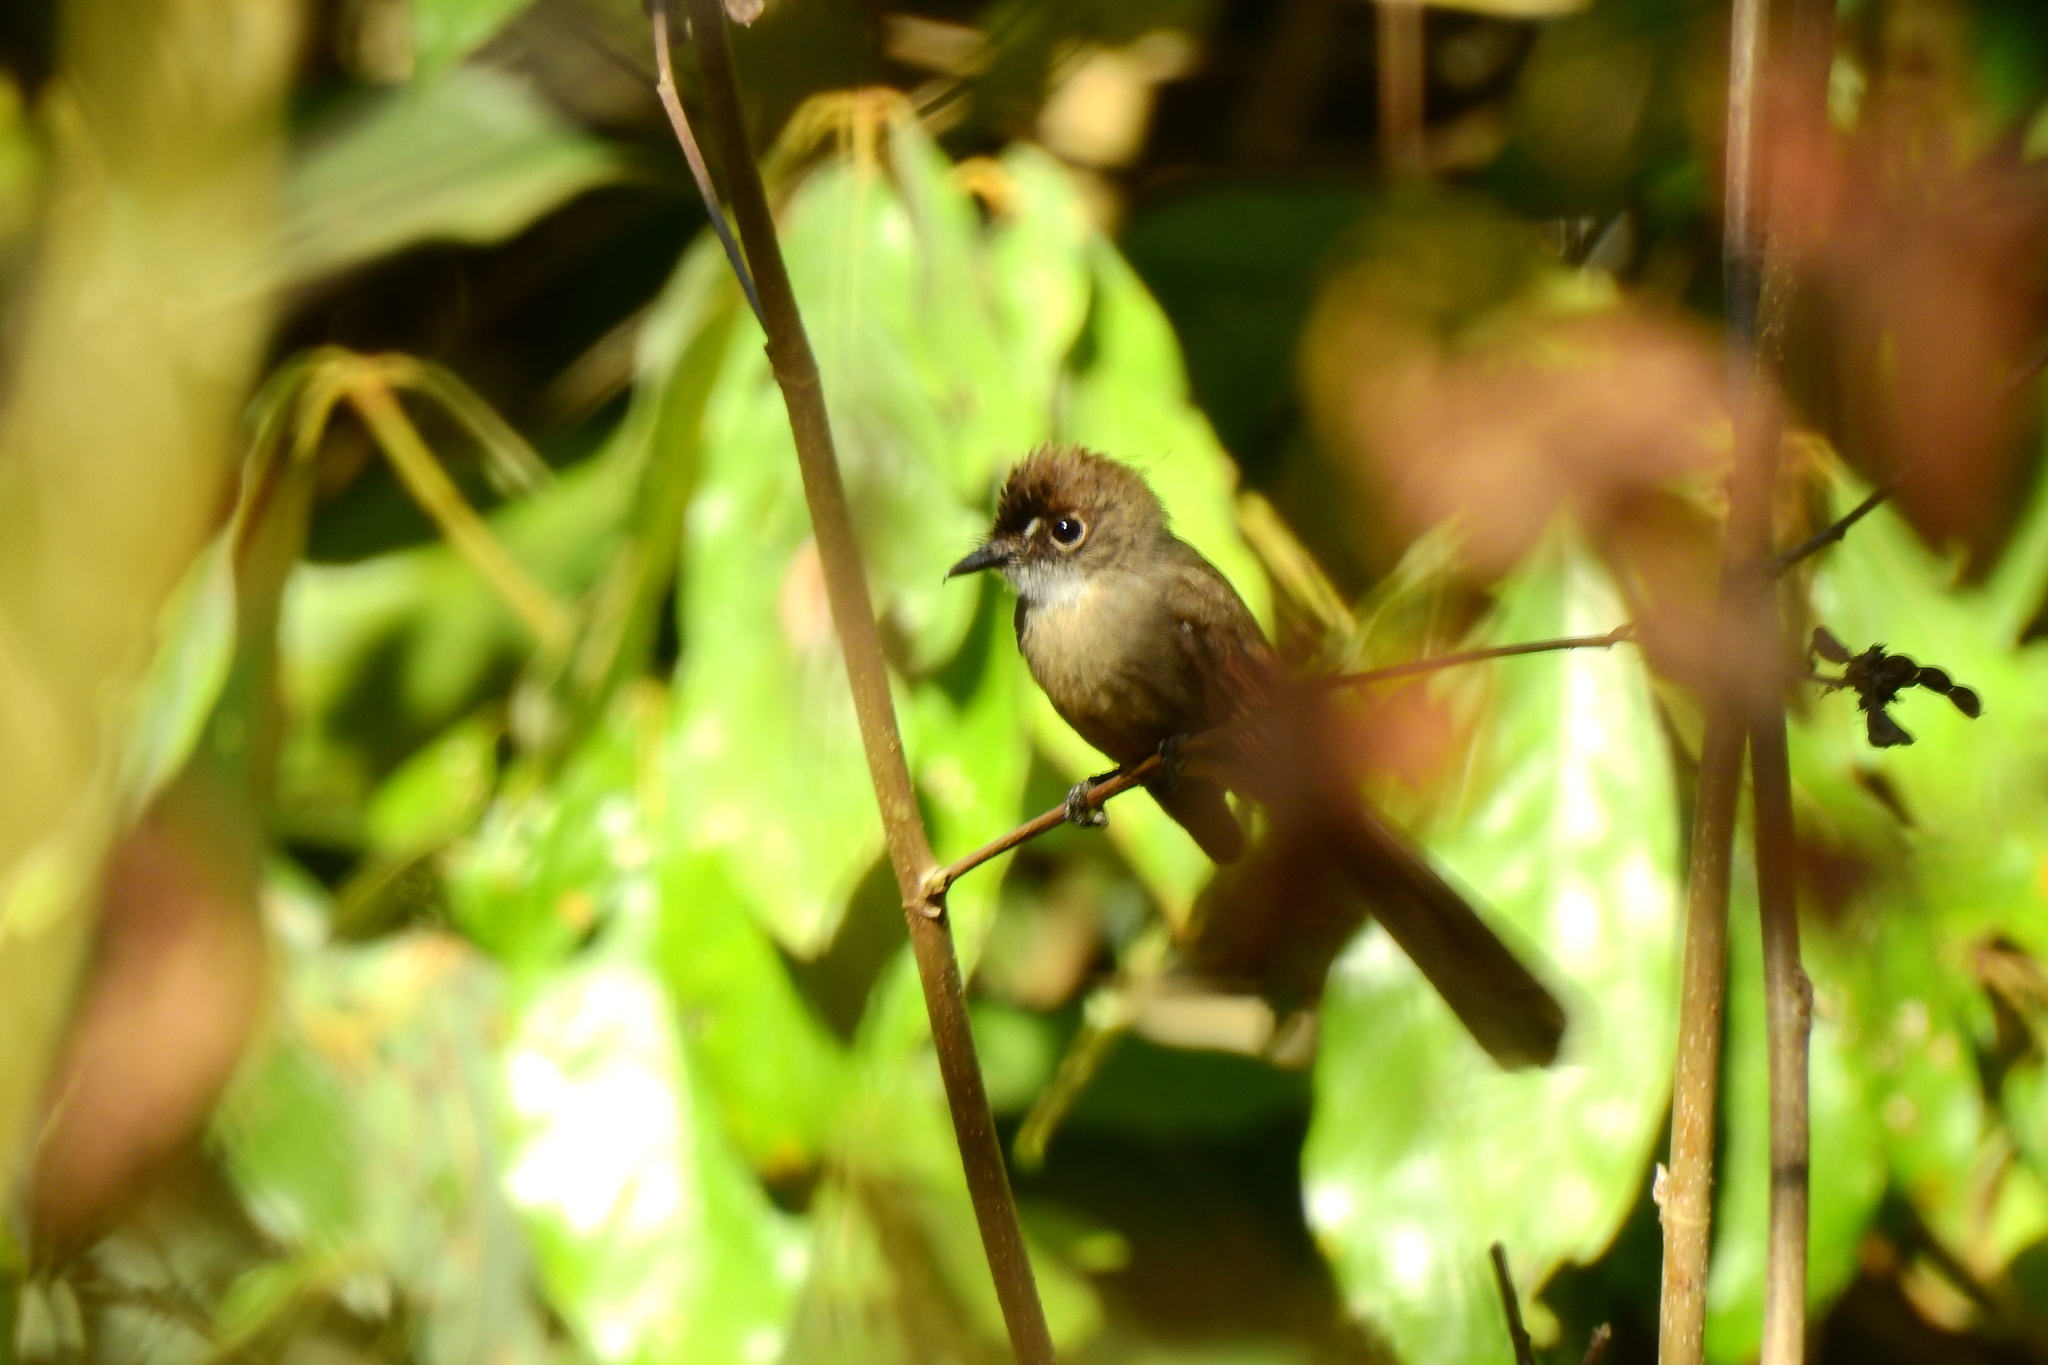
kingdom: Animalia
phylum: Chordata
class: Aves
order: Passeriformes
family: Rhipiduridae
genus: Rhipidura
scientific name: Rhipidura diluta
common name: Brown-capped fantail
